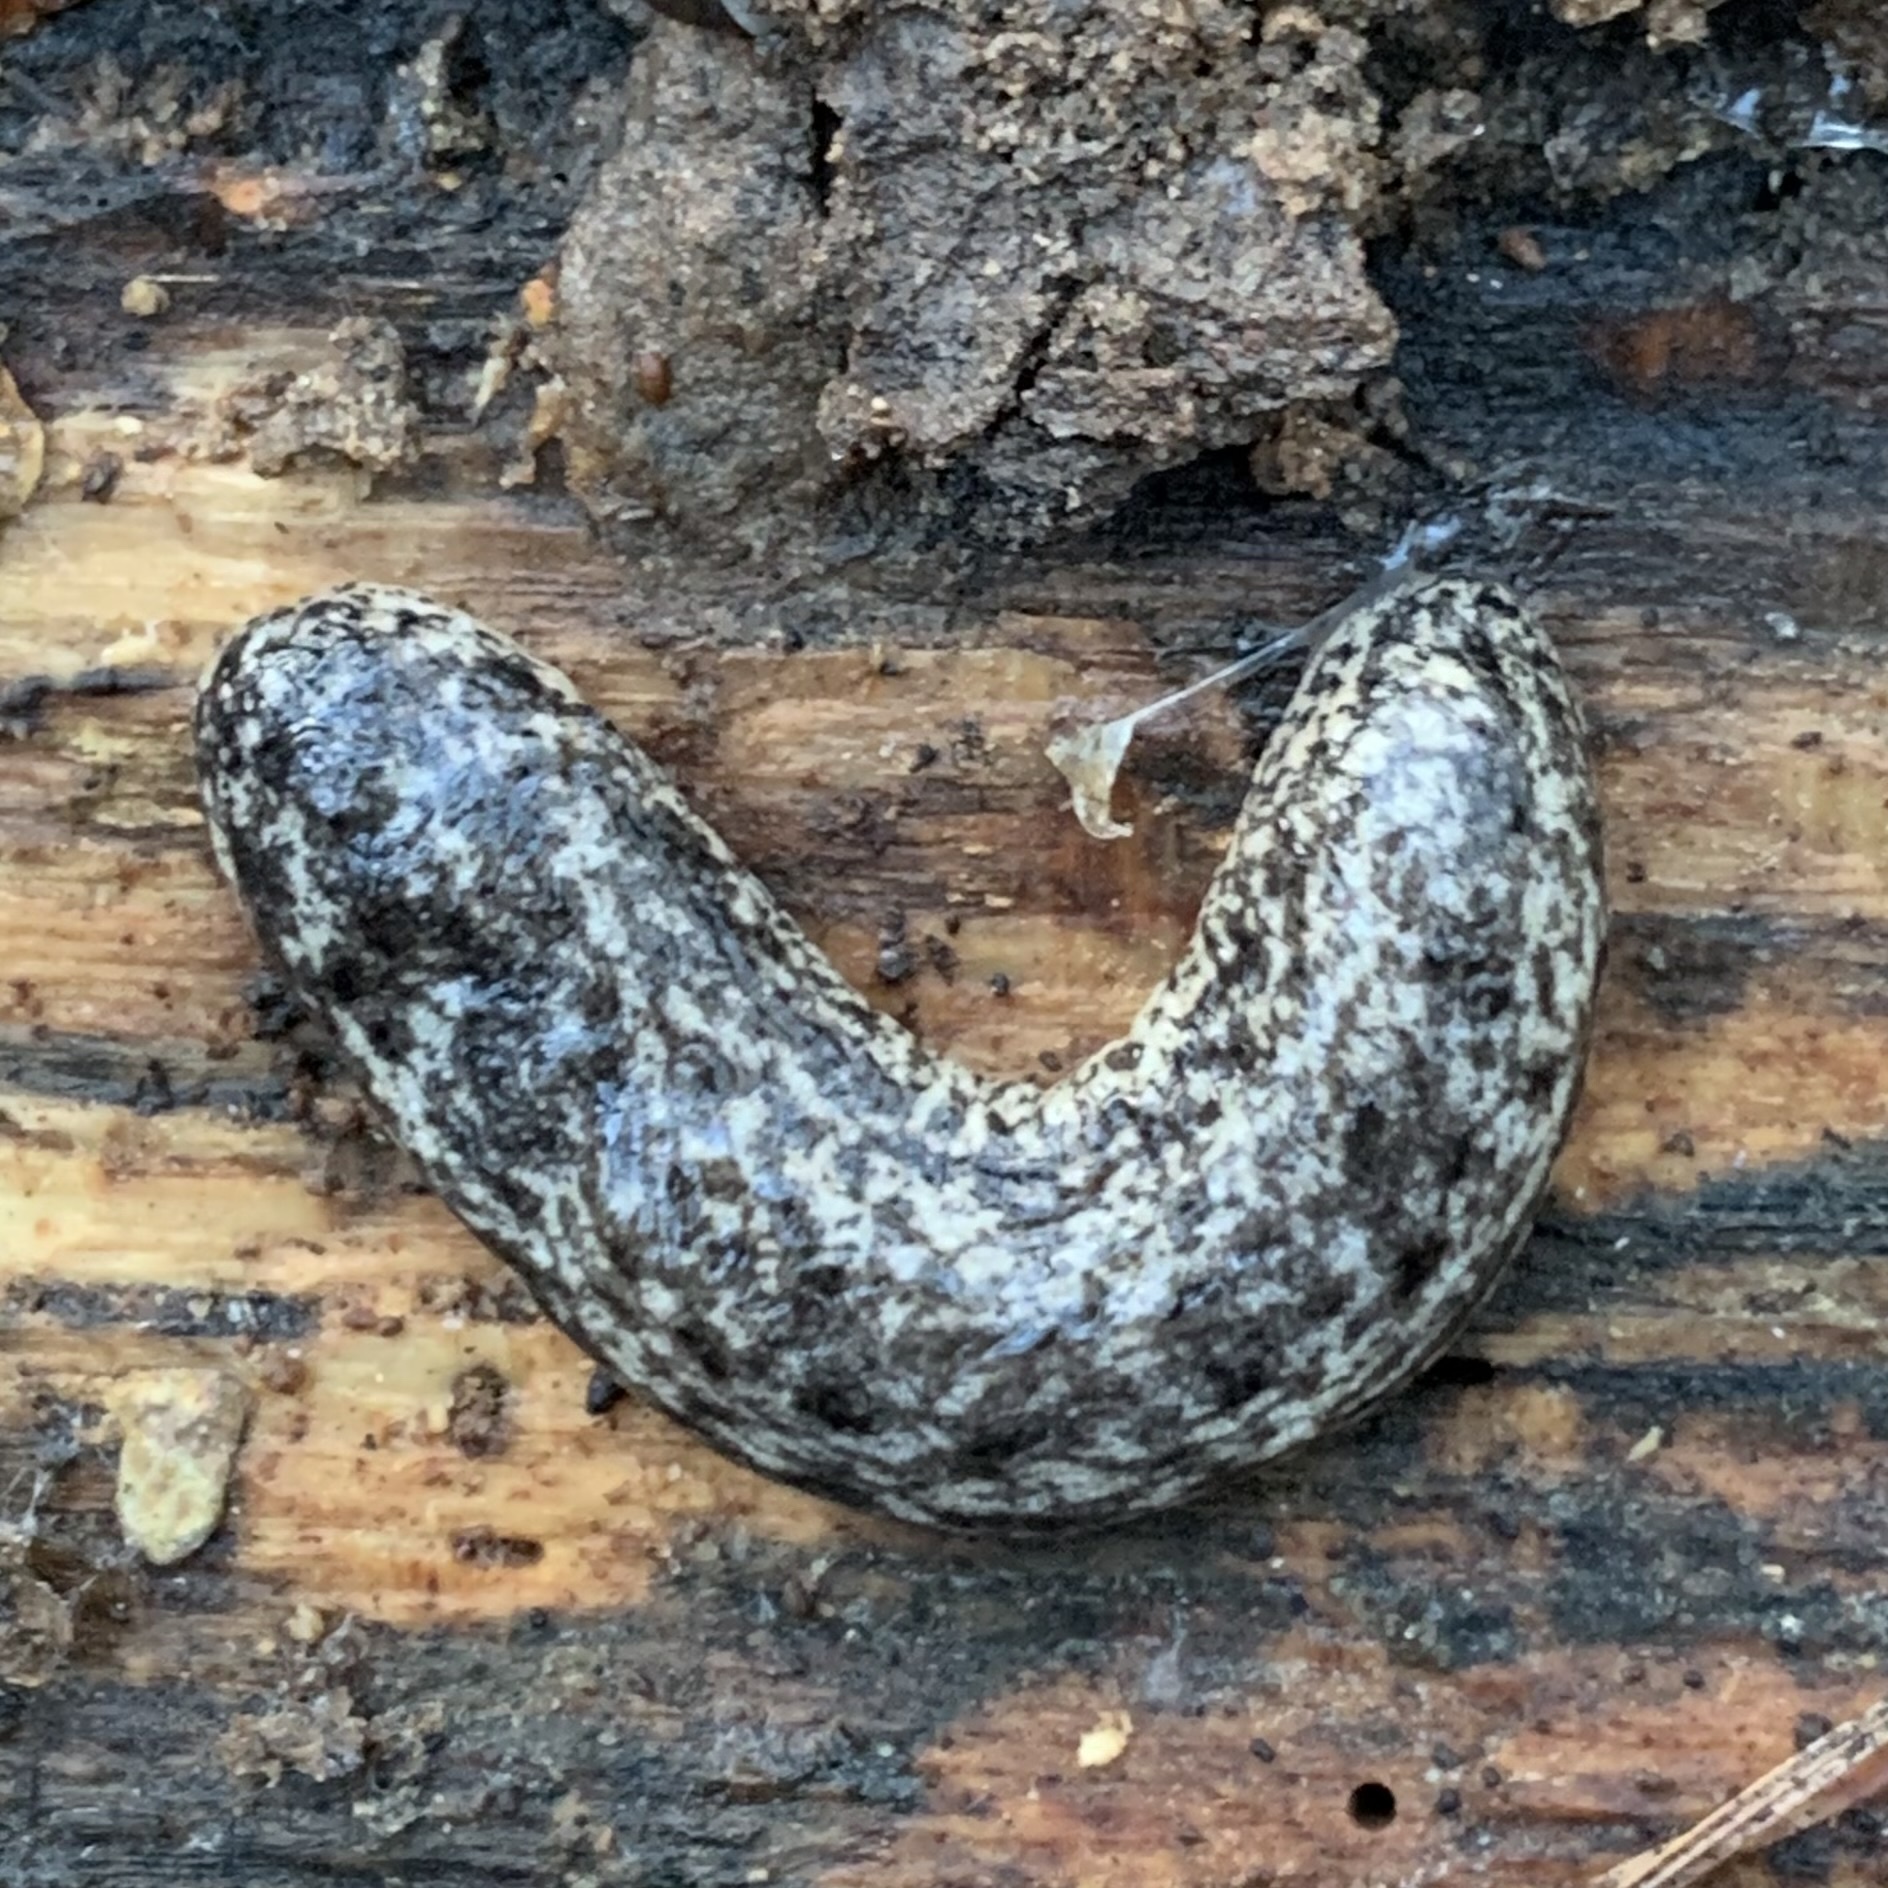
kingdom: Animalia
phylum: Mollusca
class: Gastropoda
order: Stylommatophora
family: Philomycidae
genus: Philomycus
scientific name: Philomycus carolinianus
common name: Carolina mantleslug
